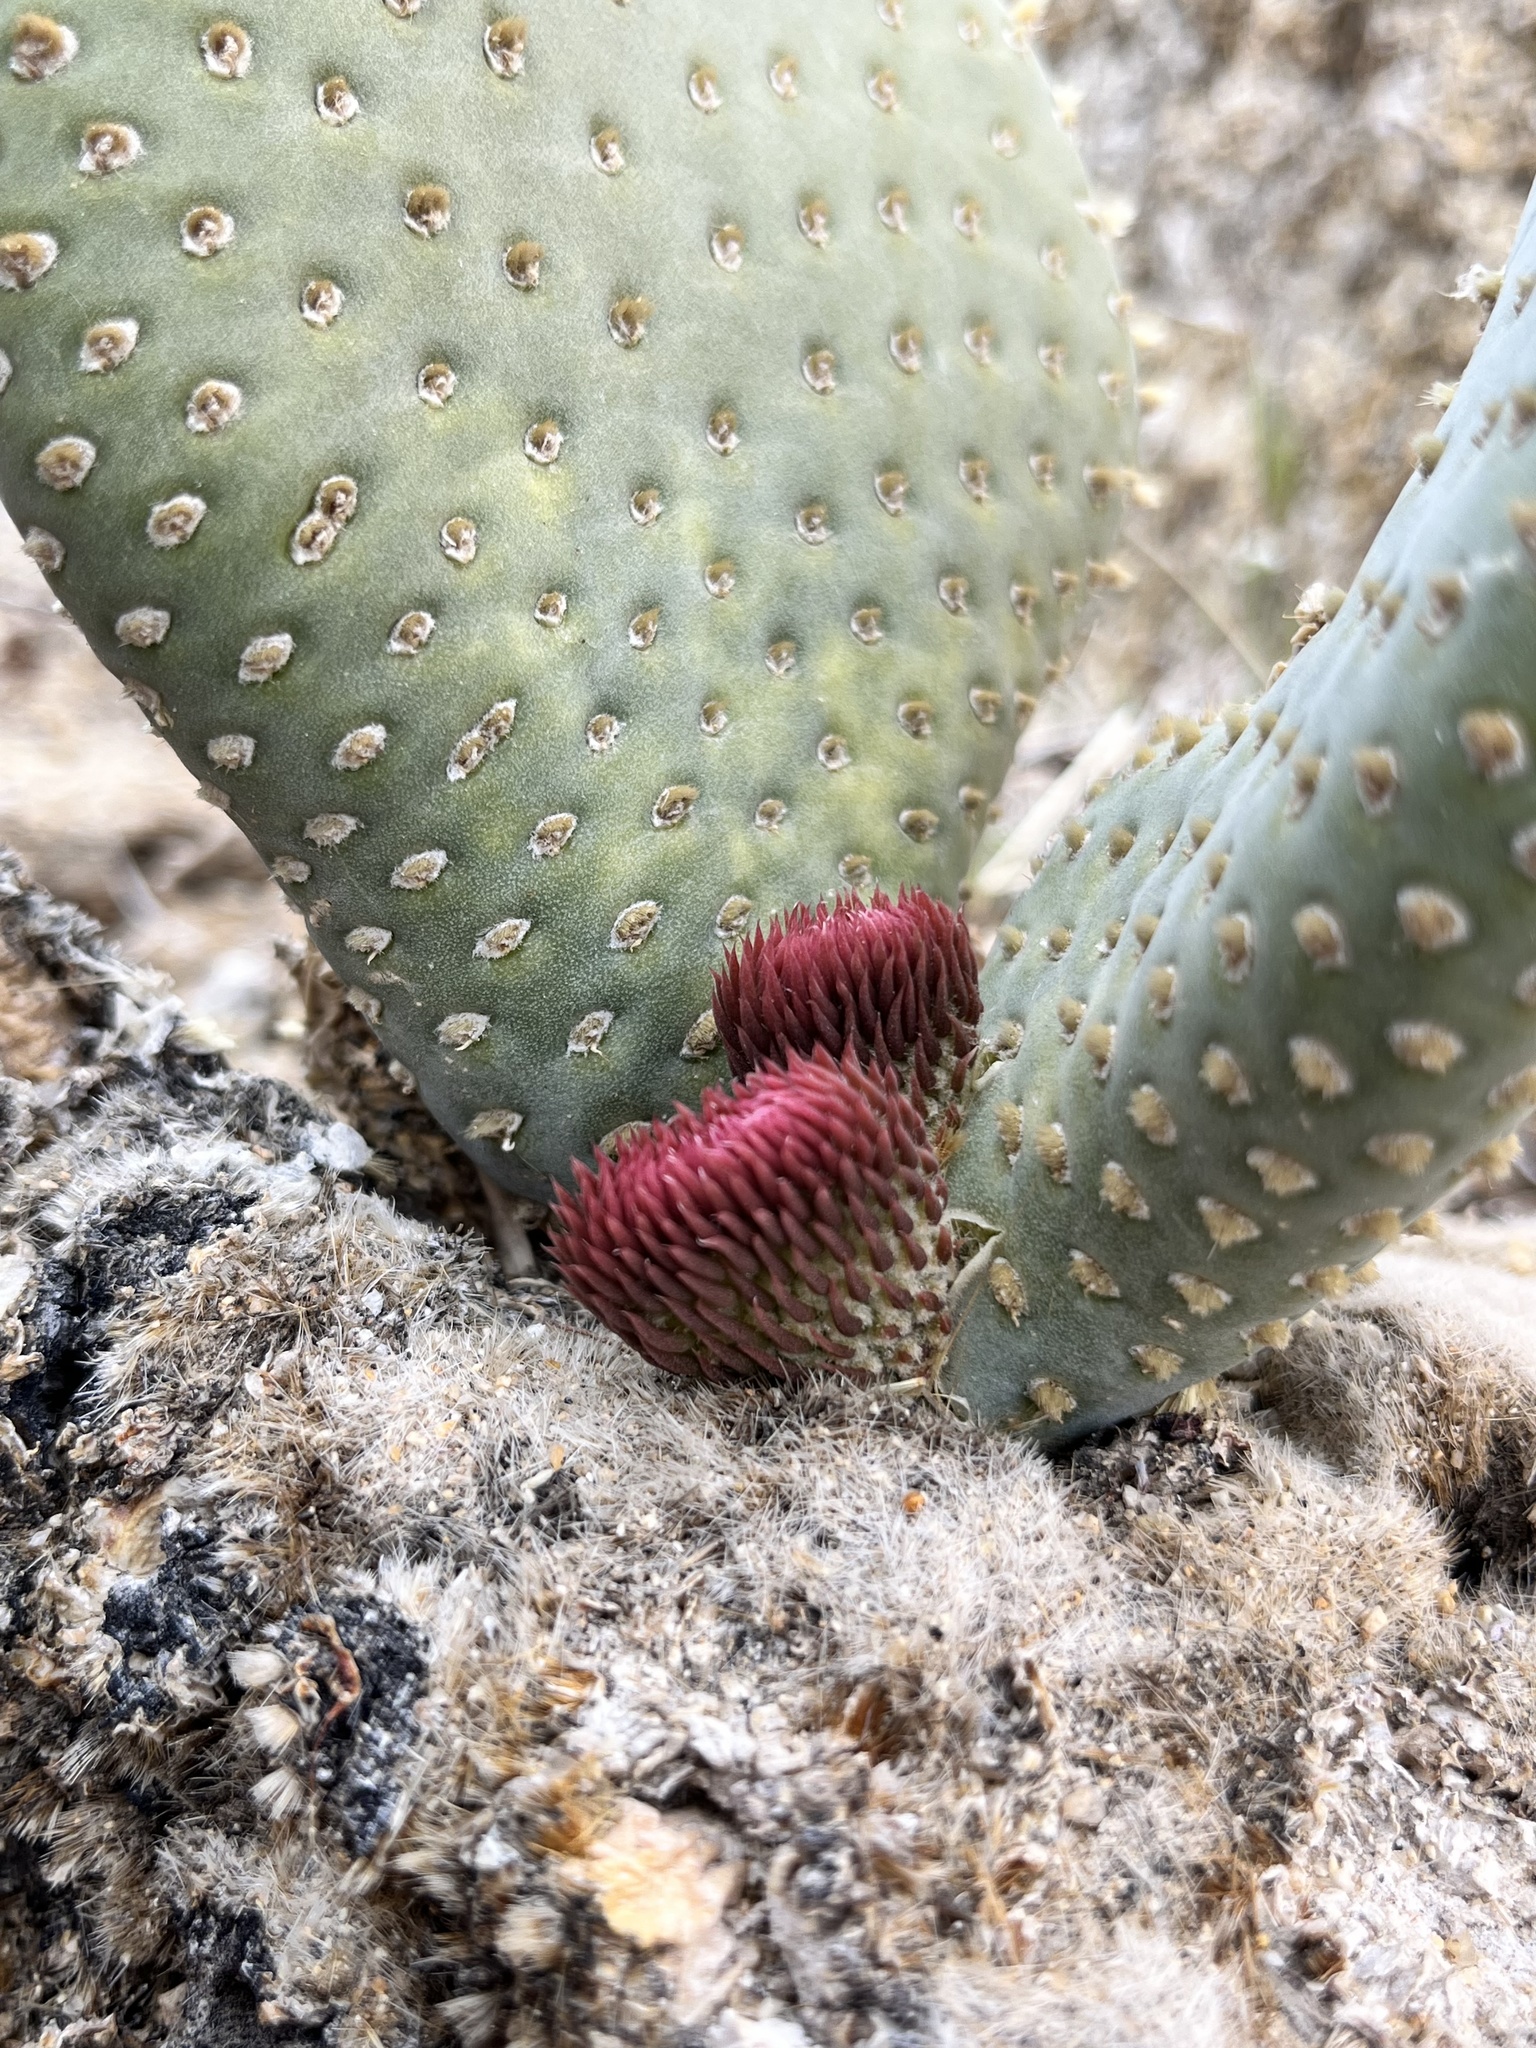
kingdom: Plantae
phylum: Tracheophyta
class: Magnoliopsida
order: Caryophyllales
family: Cactaceae
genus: Opuntia
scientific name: Opuntia basilaris
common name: Beavertail prickly-pear
